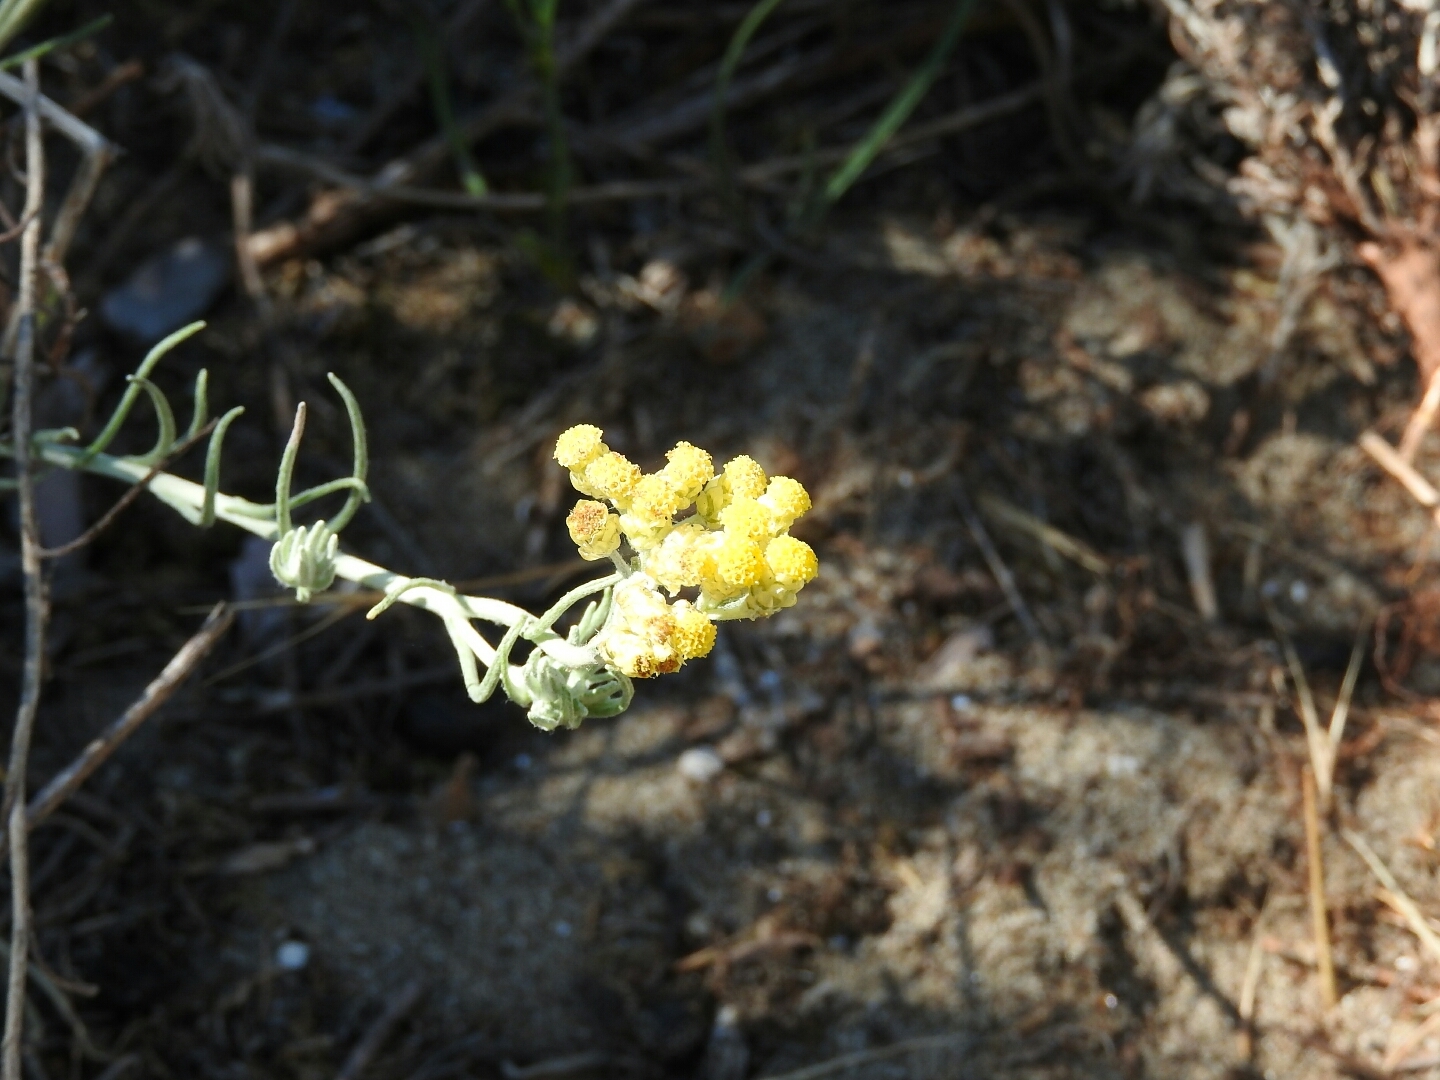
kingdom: Plantae
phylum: Tracheophyta
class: Magnoliopsida
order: Asterales
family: Asteraceae
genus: Helichrysum
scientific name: Helichrysum stoechas
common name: Goldilocks
